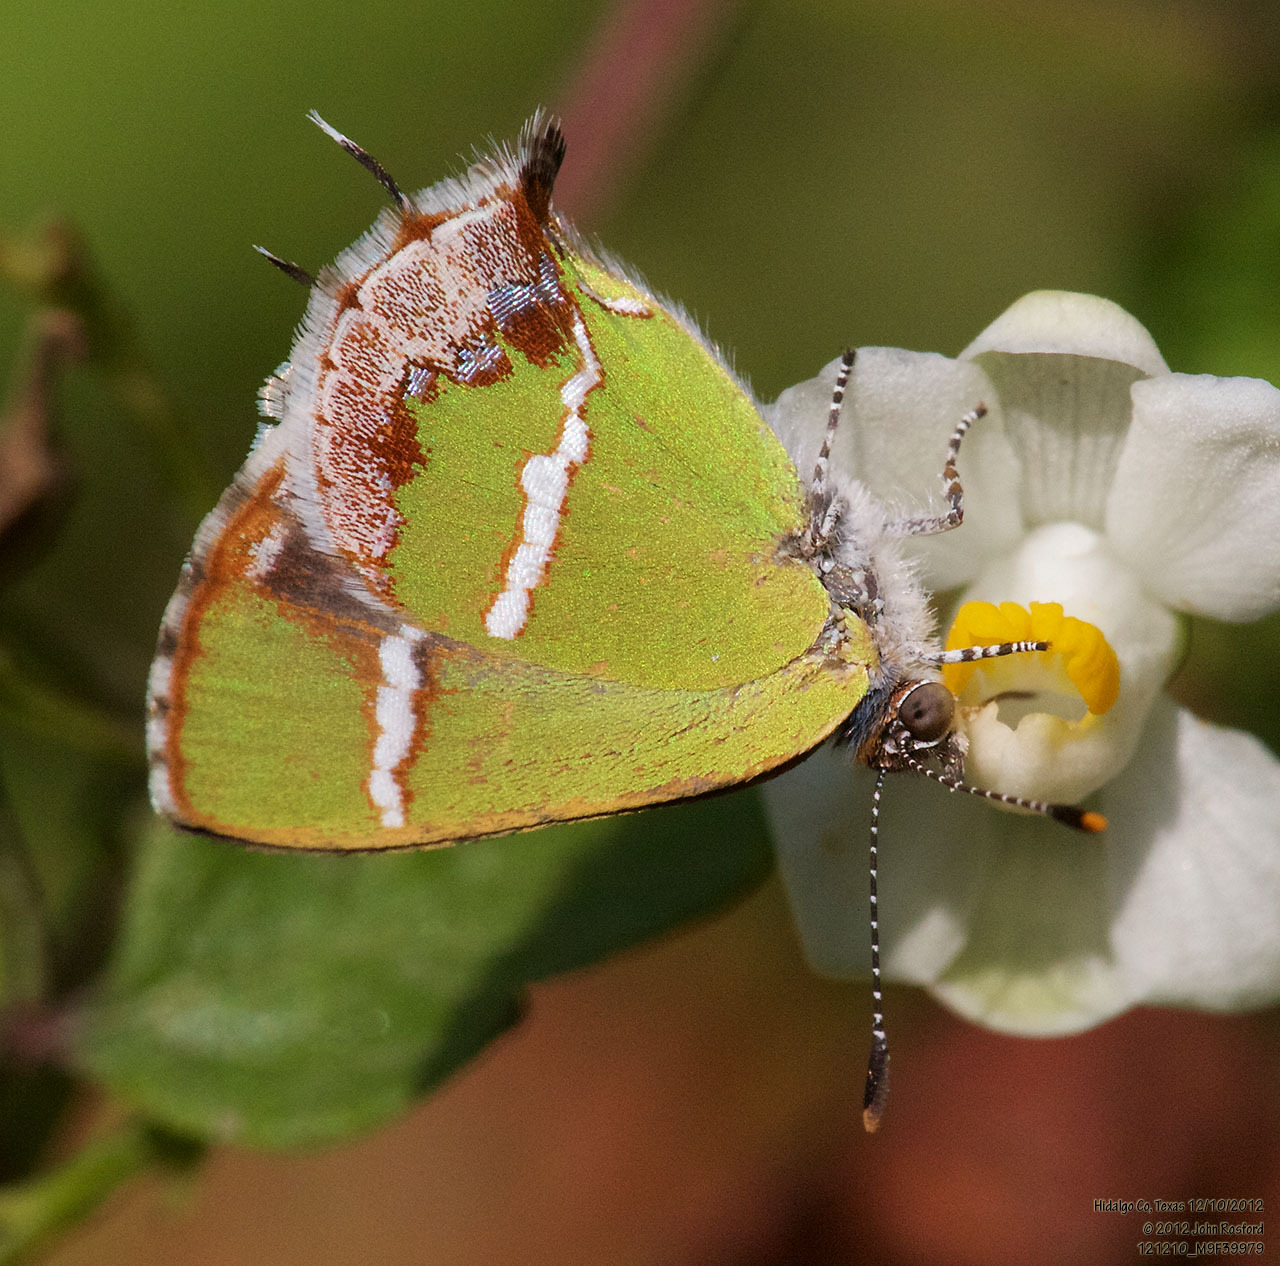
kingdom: Animalia
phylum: Arthropoda
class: Insecta
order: Lepidoptera
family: Lycaenidae
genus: Chlorostrymon
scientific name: Chlorostrymon simaethis
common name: Silver-banded hairstreak
